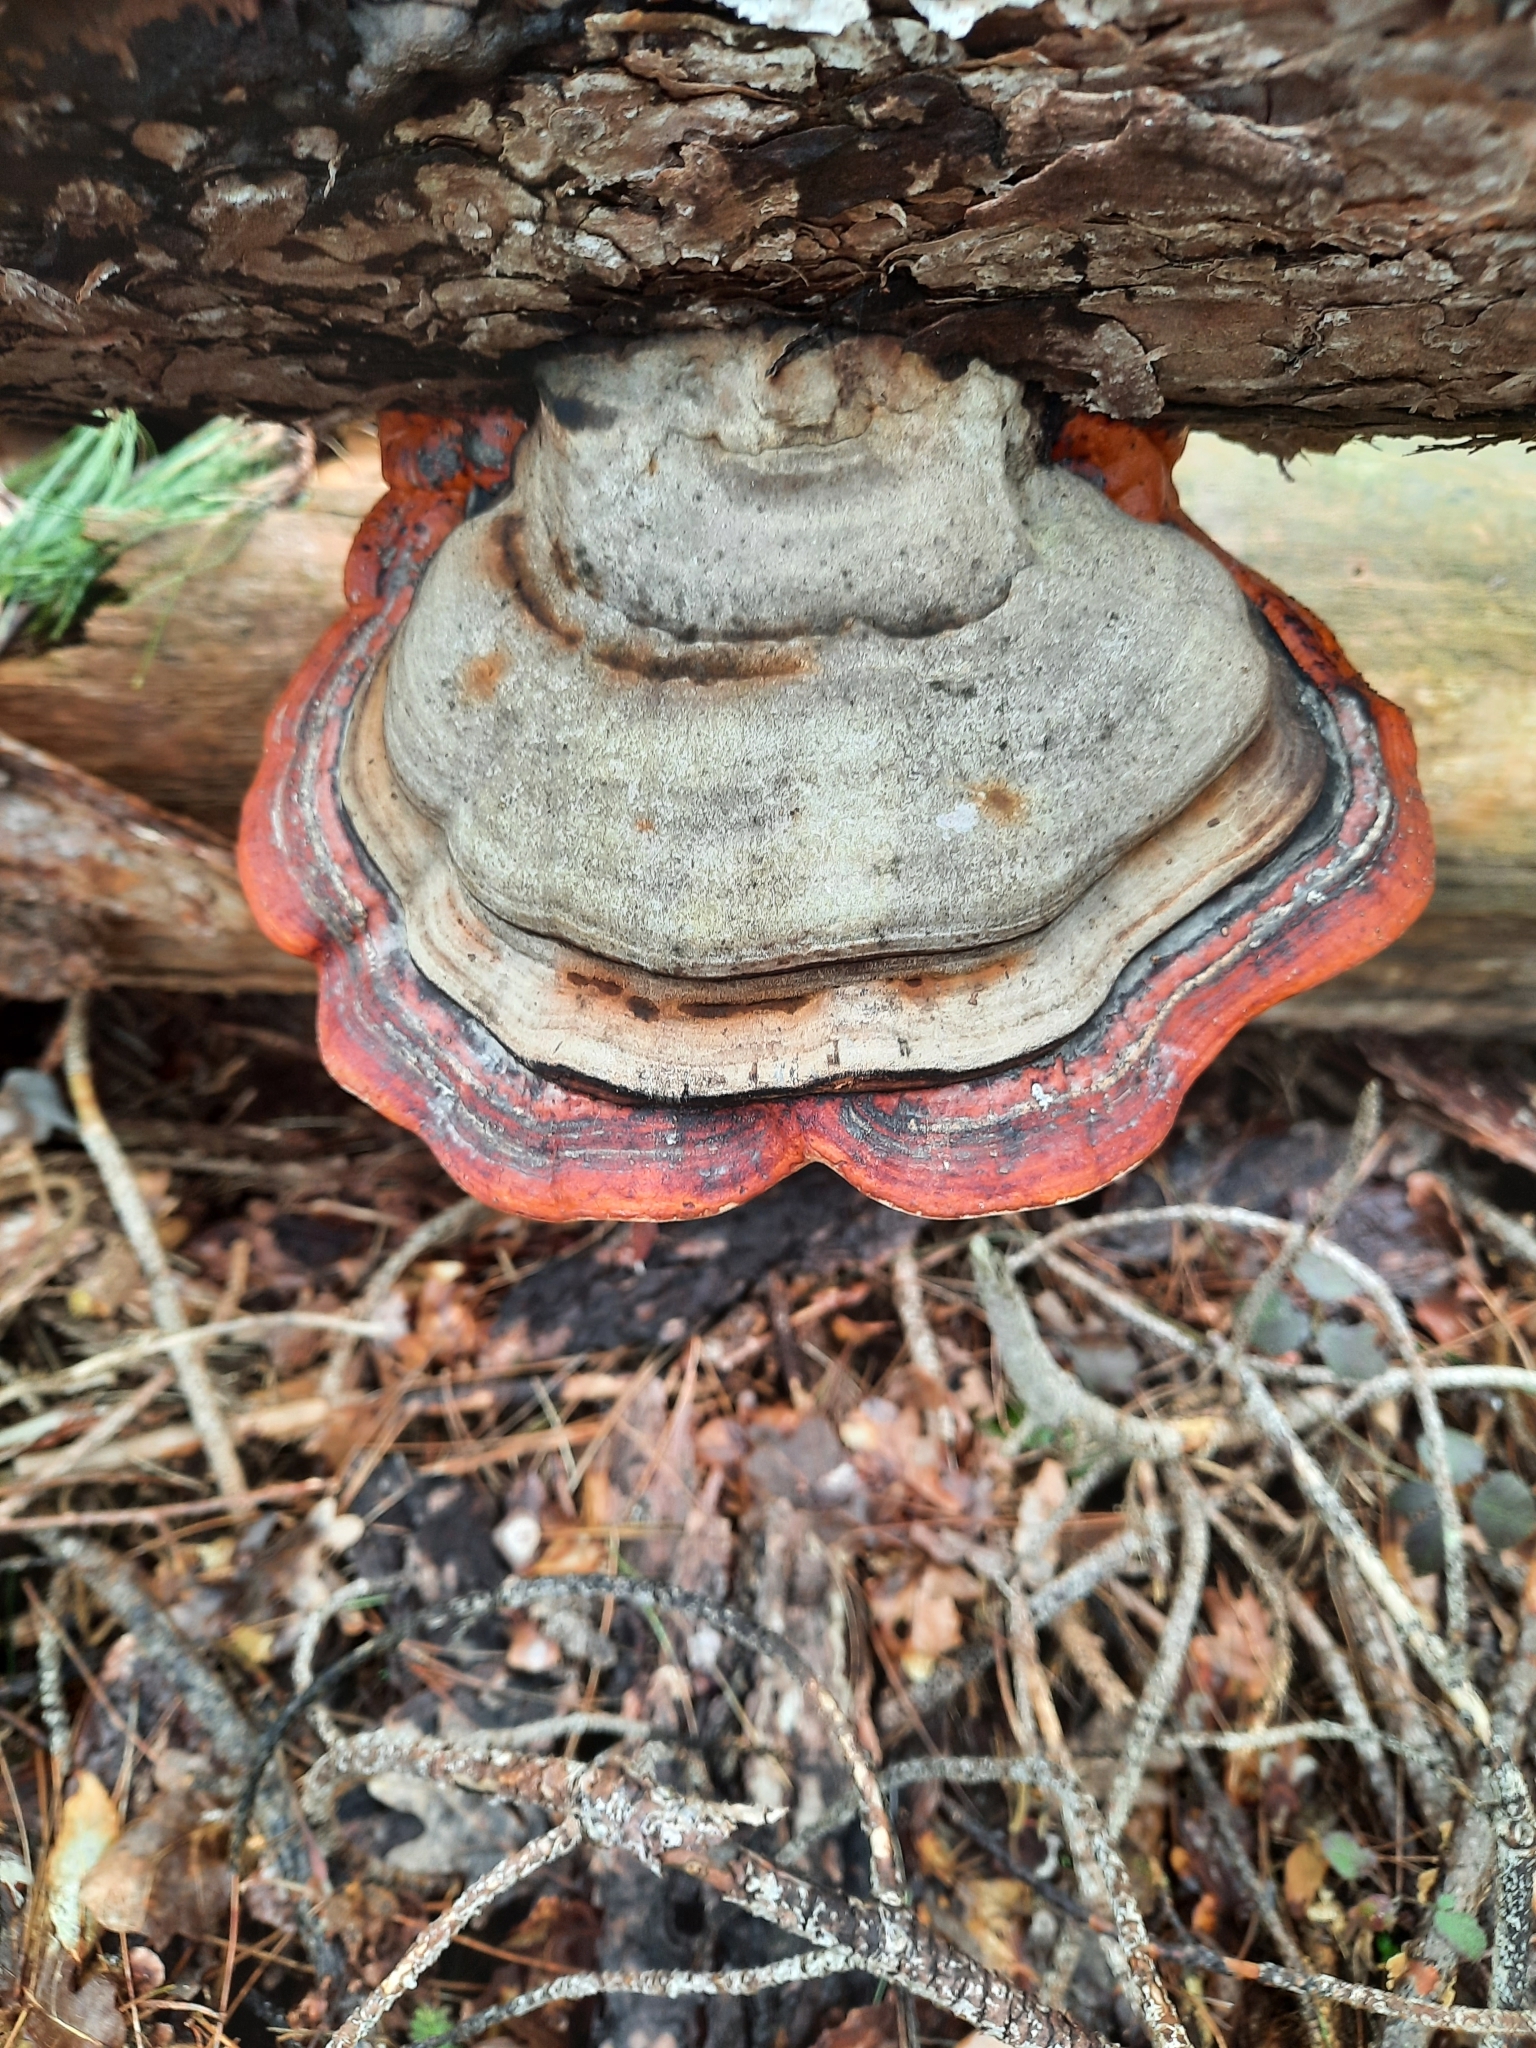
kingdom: Fungi
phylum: Basidiomycota
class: Agaricomycetes
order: Polyporales
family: Fomitopsidaceae
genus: Fomitopsis
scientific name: Fomitopsis pinicola
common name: Red-belted bracket
